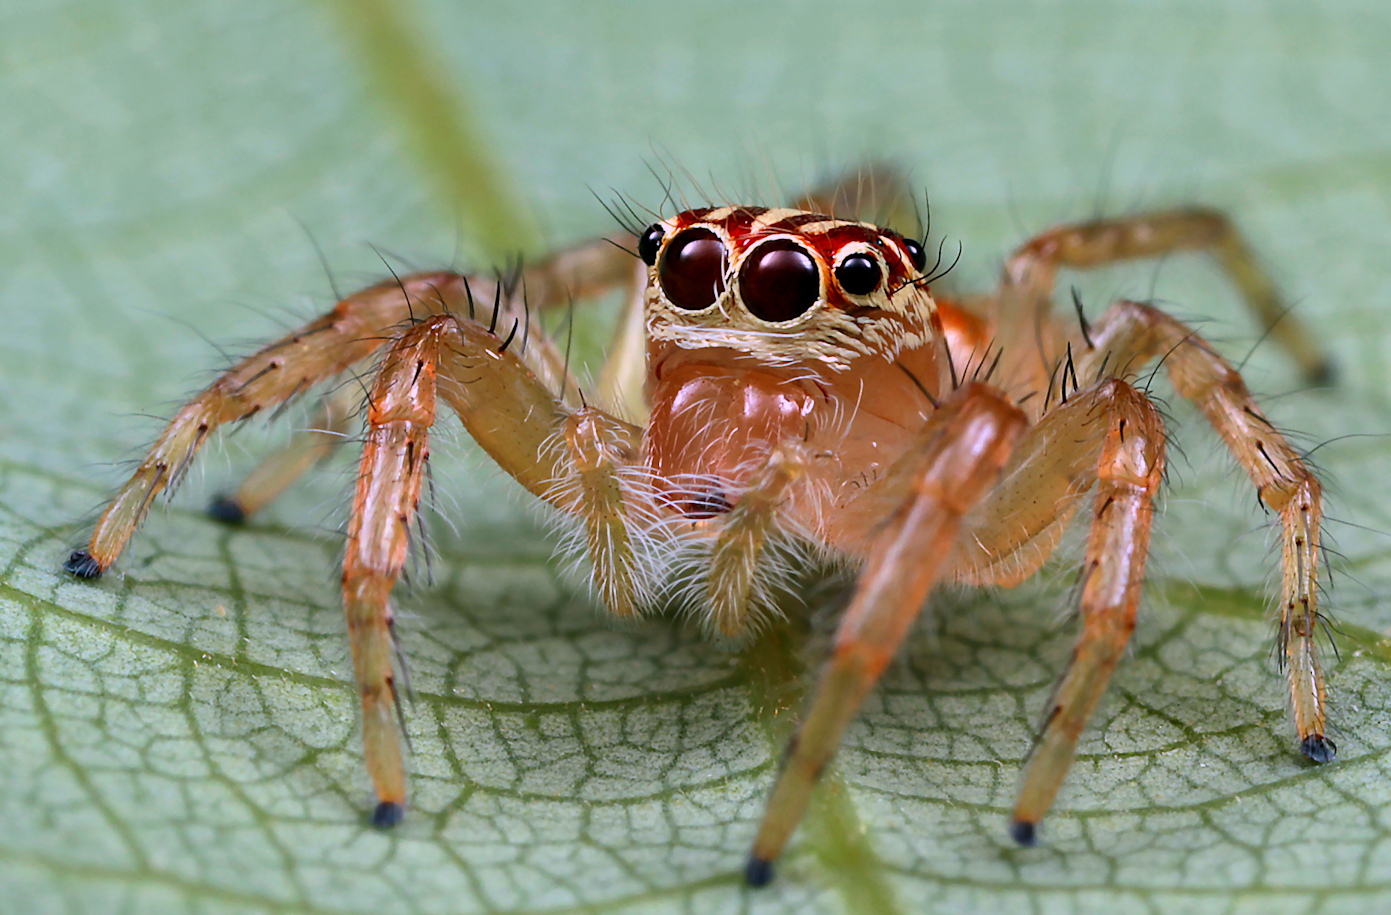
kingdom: Animalia
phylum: Arthropoda
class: Arachnida
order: Araneae
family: Salticidae
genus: Brancus
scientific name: Brancus mustelus
